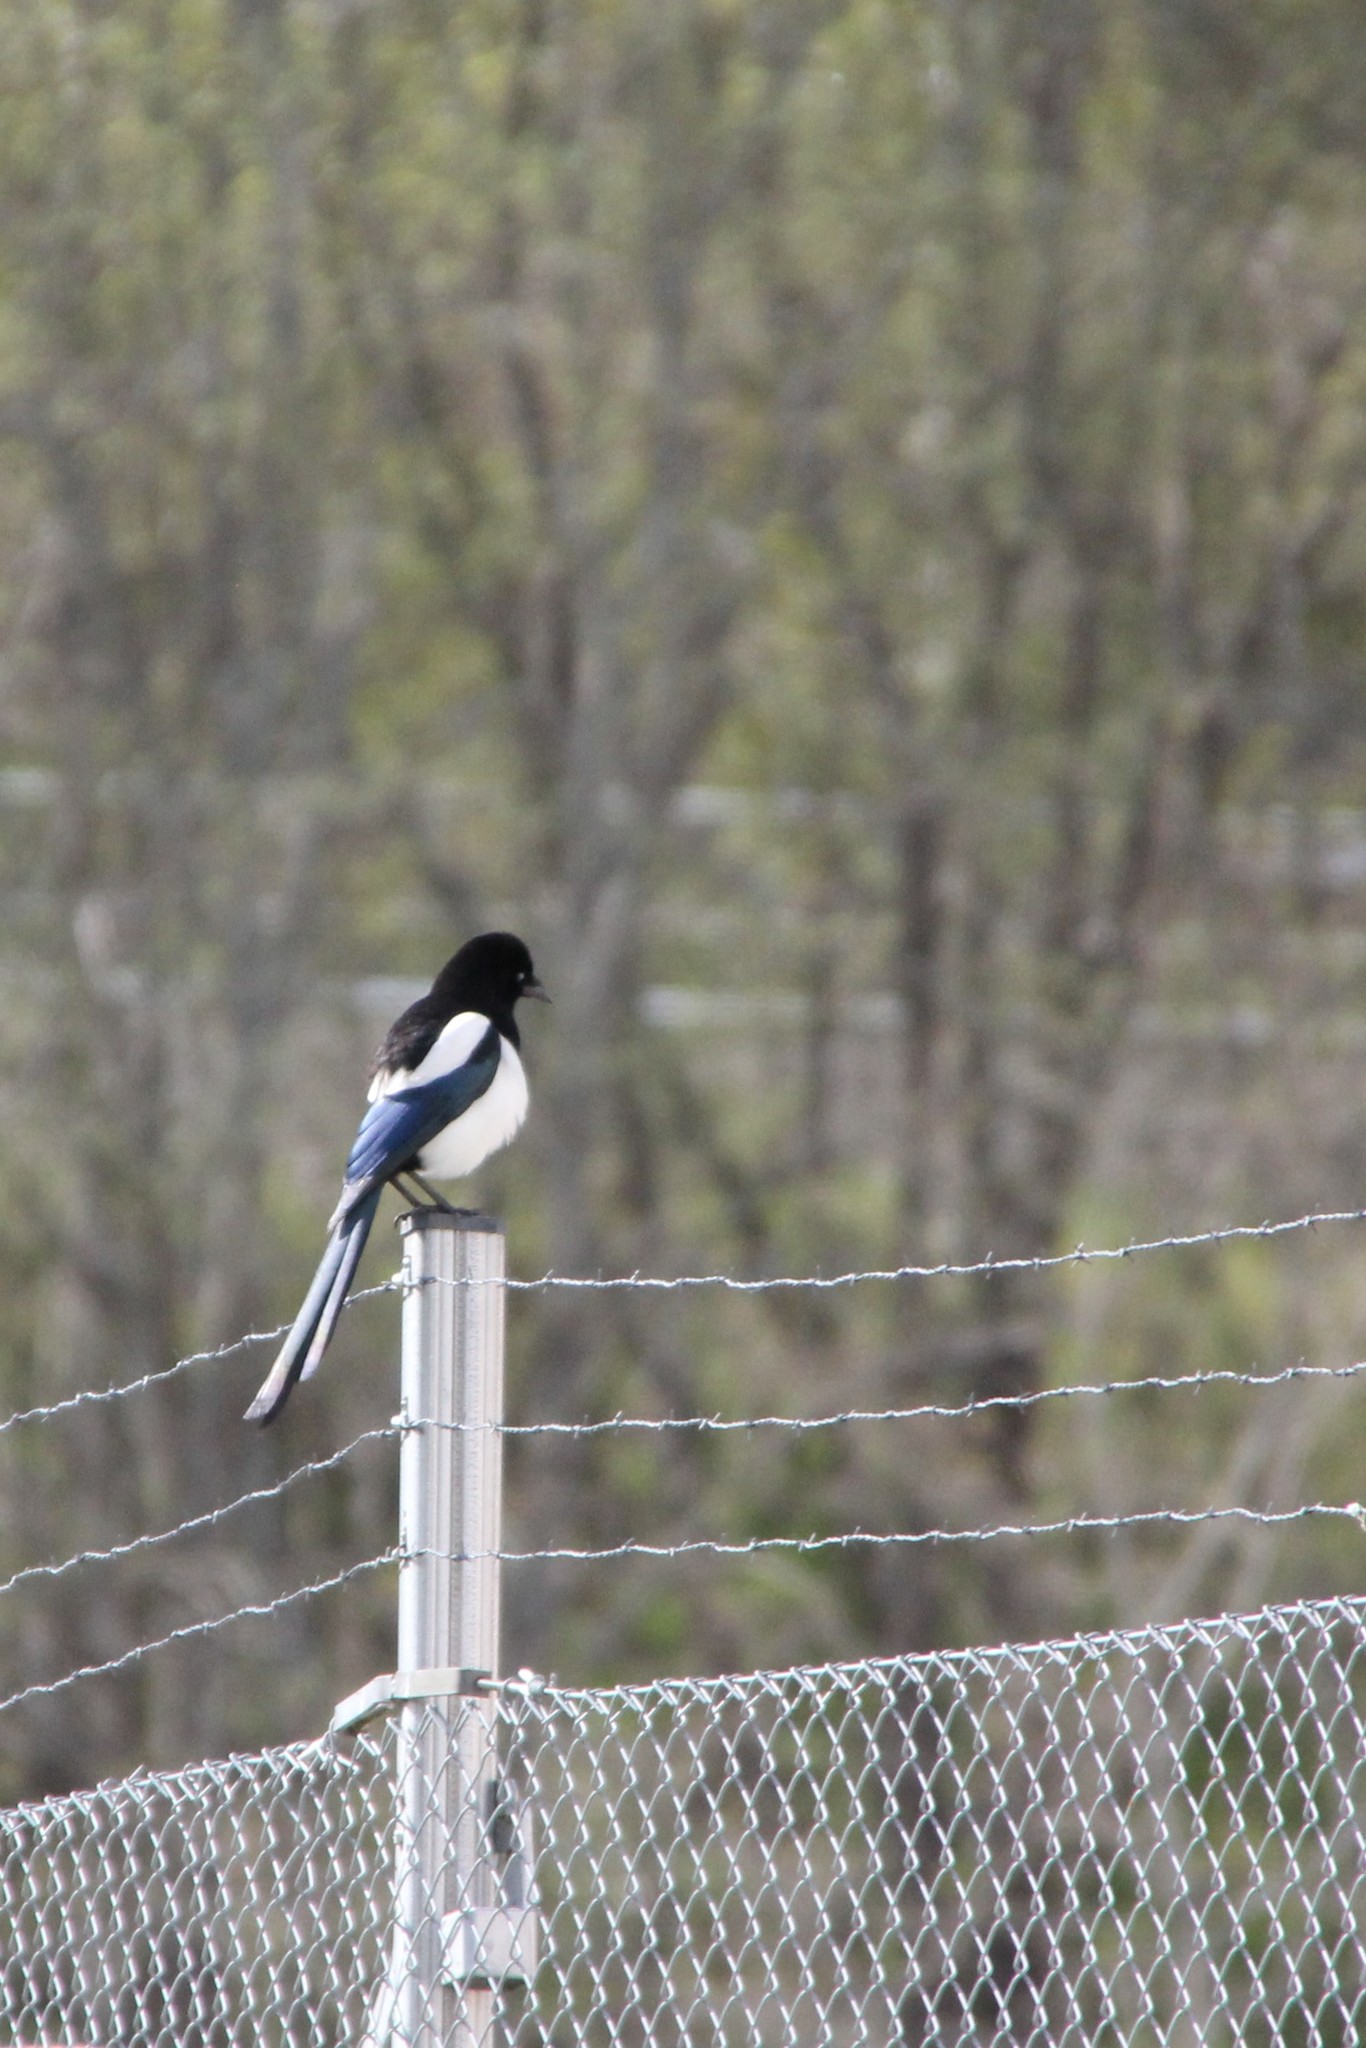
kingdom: Animalia
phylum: Chordata
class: Aves
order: Passeriformes
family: Corvidae
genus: Pica
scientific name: Pica pica
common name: Eurasian magpie
